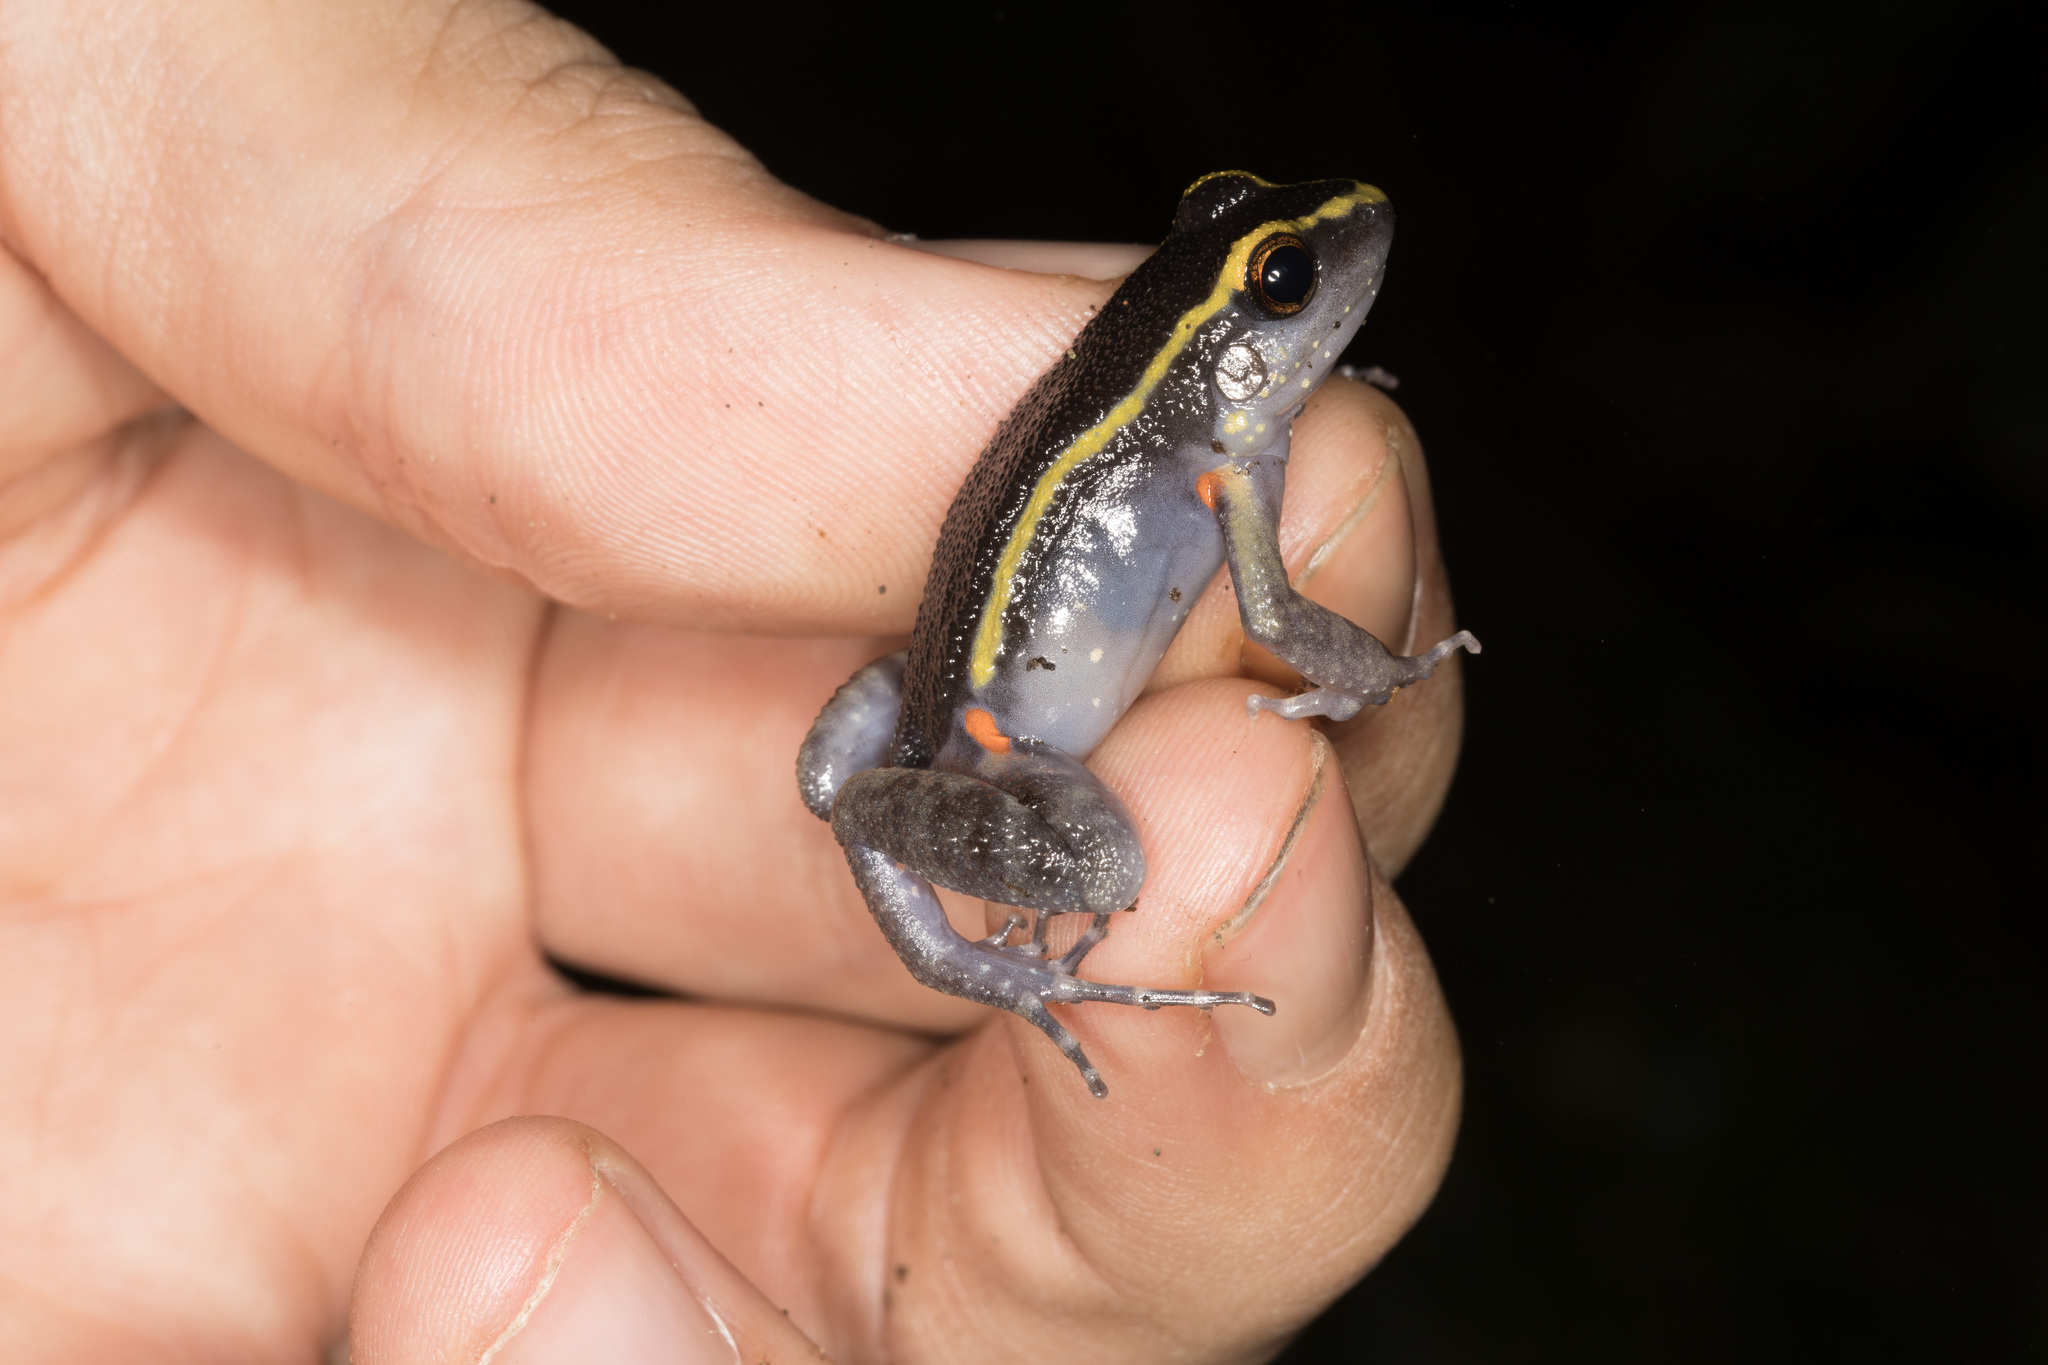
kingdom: Animalia
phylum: Chordata
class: Amphibia
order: Anura
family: Leptodactylidae
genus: Lithodytes
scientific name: Lithodytes lineatus
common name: Gold-striped frog
